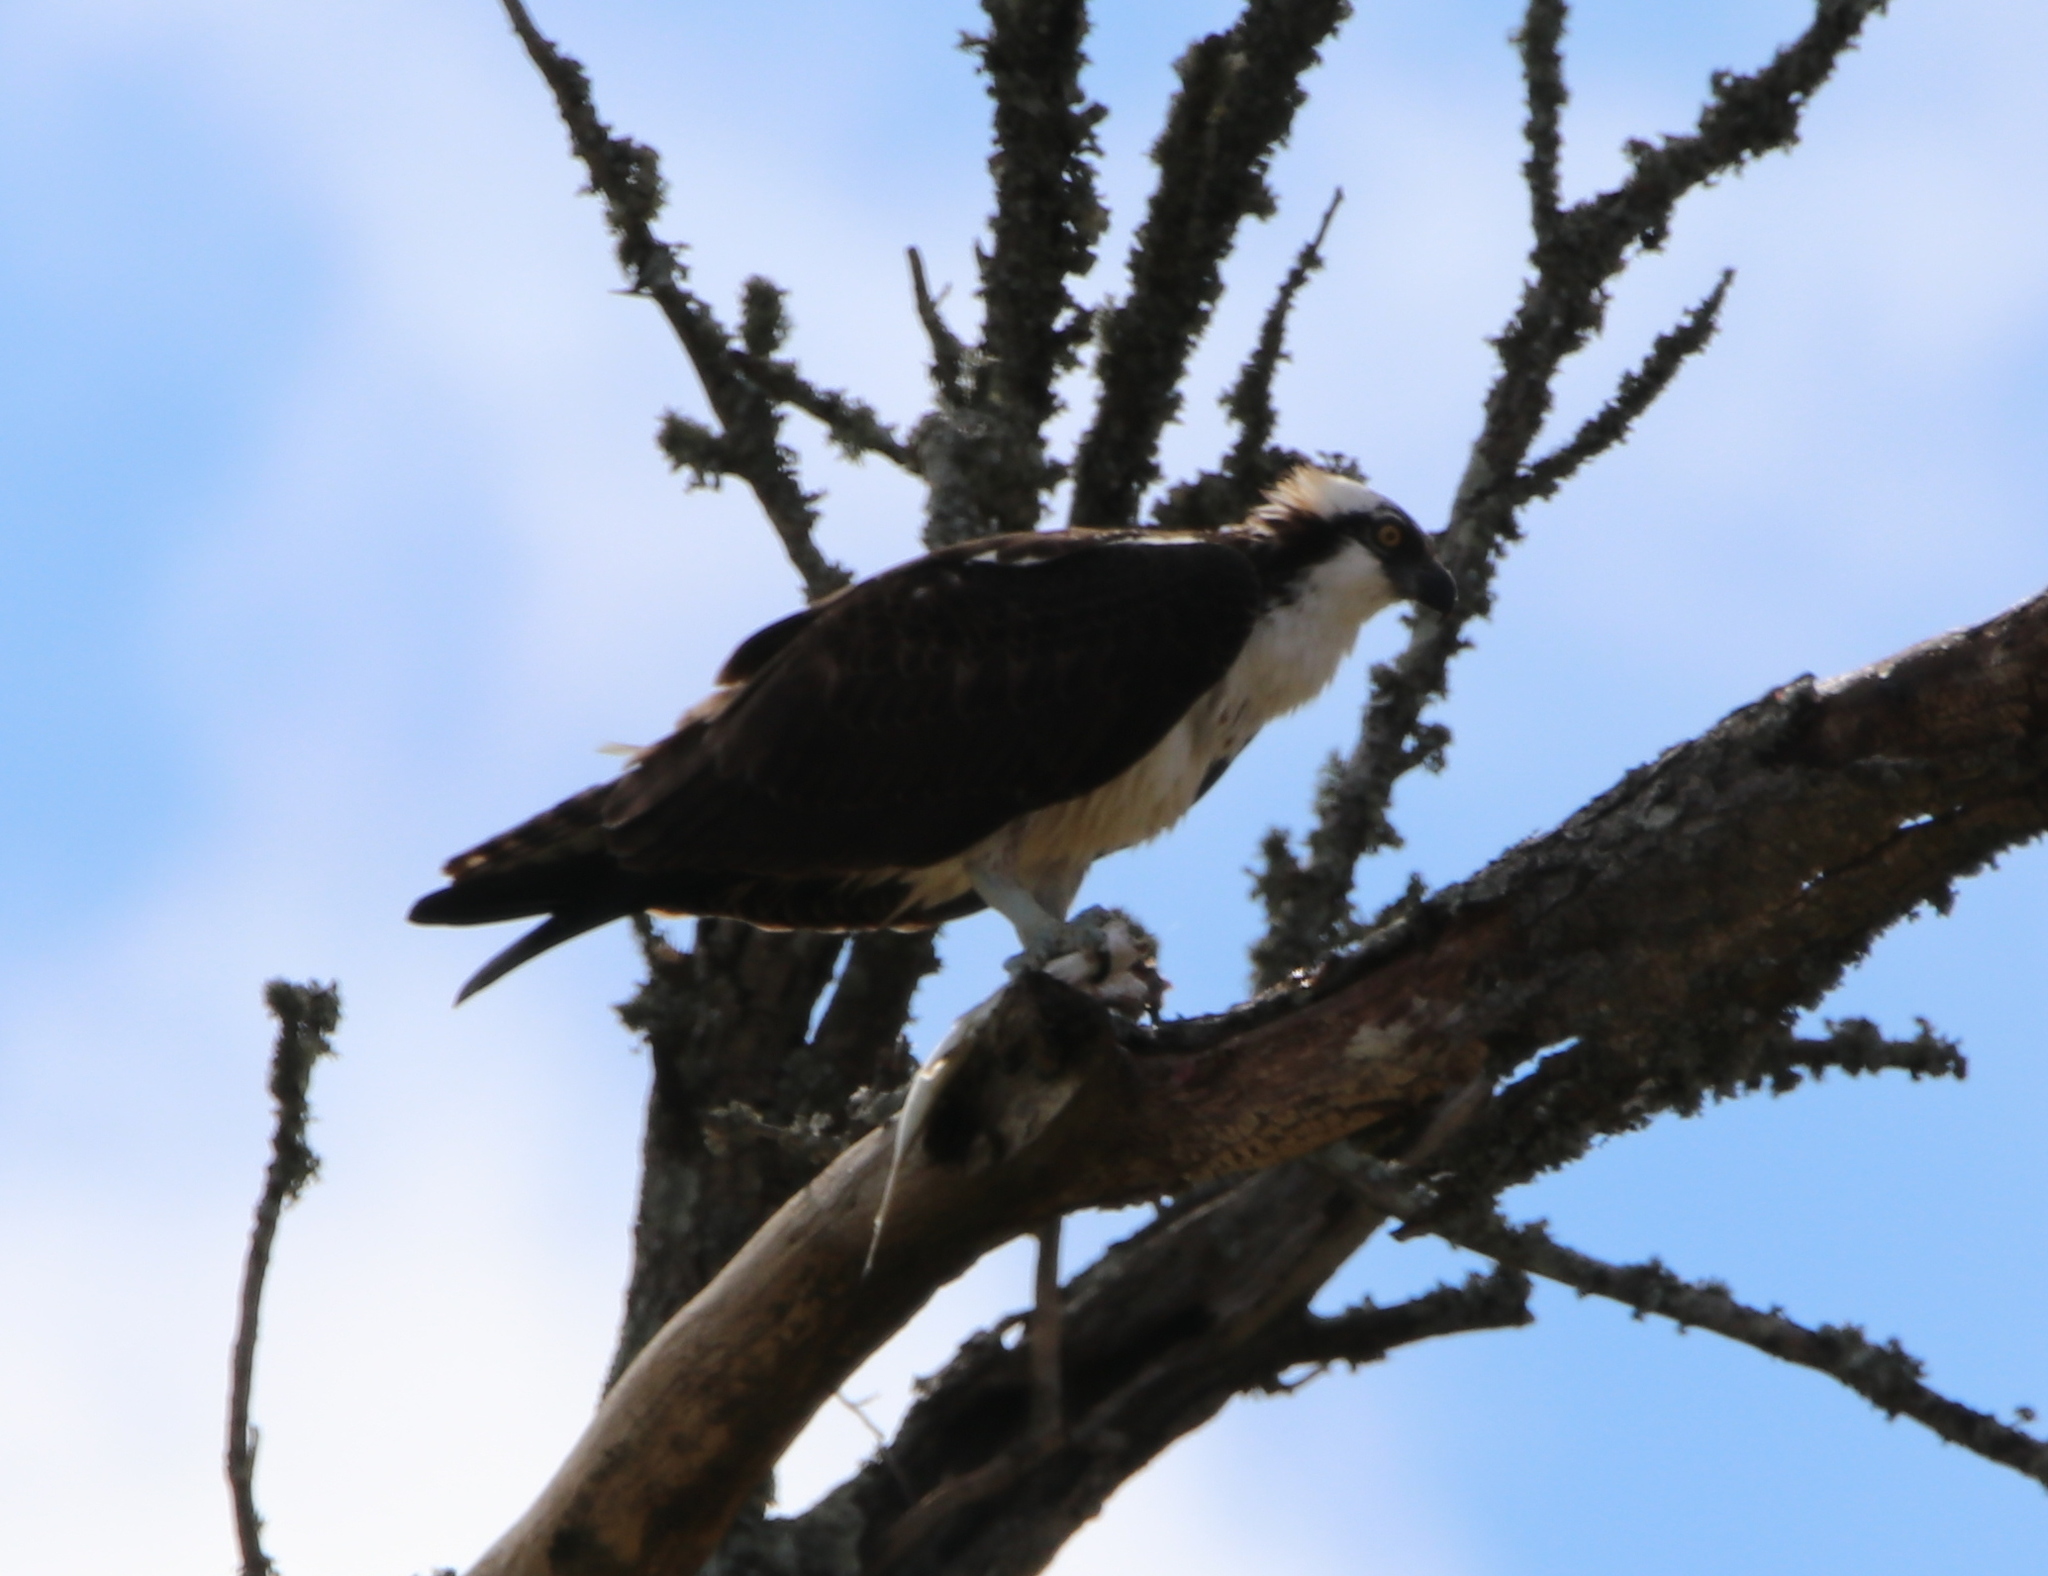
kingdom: Animalia
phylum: Chordata
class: Aves
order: Accipitriformes
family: Pandionidae
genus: Pandion
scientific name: Pandion haliaetus
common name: Osprey
